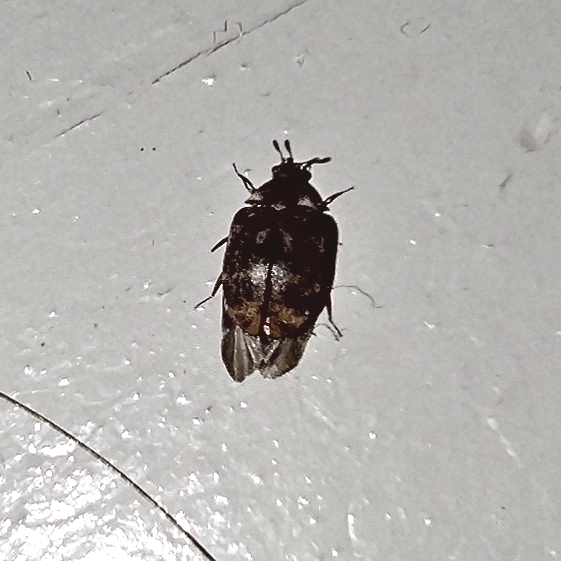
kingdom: Animalia
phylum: Arthropoda
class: Insecta
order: Coleoptera
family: Dermestidae
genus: Anthrenus
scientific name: Anthrenus museorum
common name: Museum beetle
